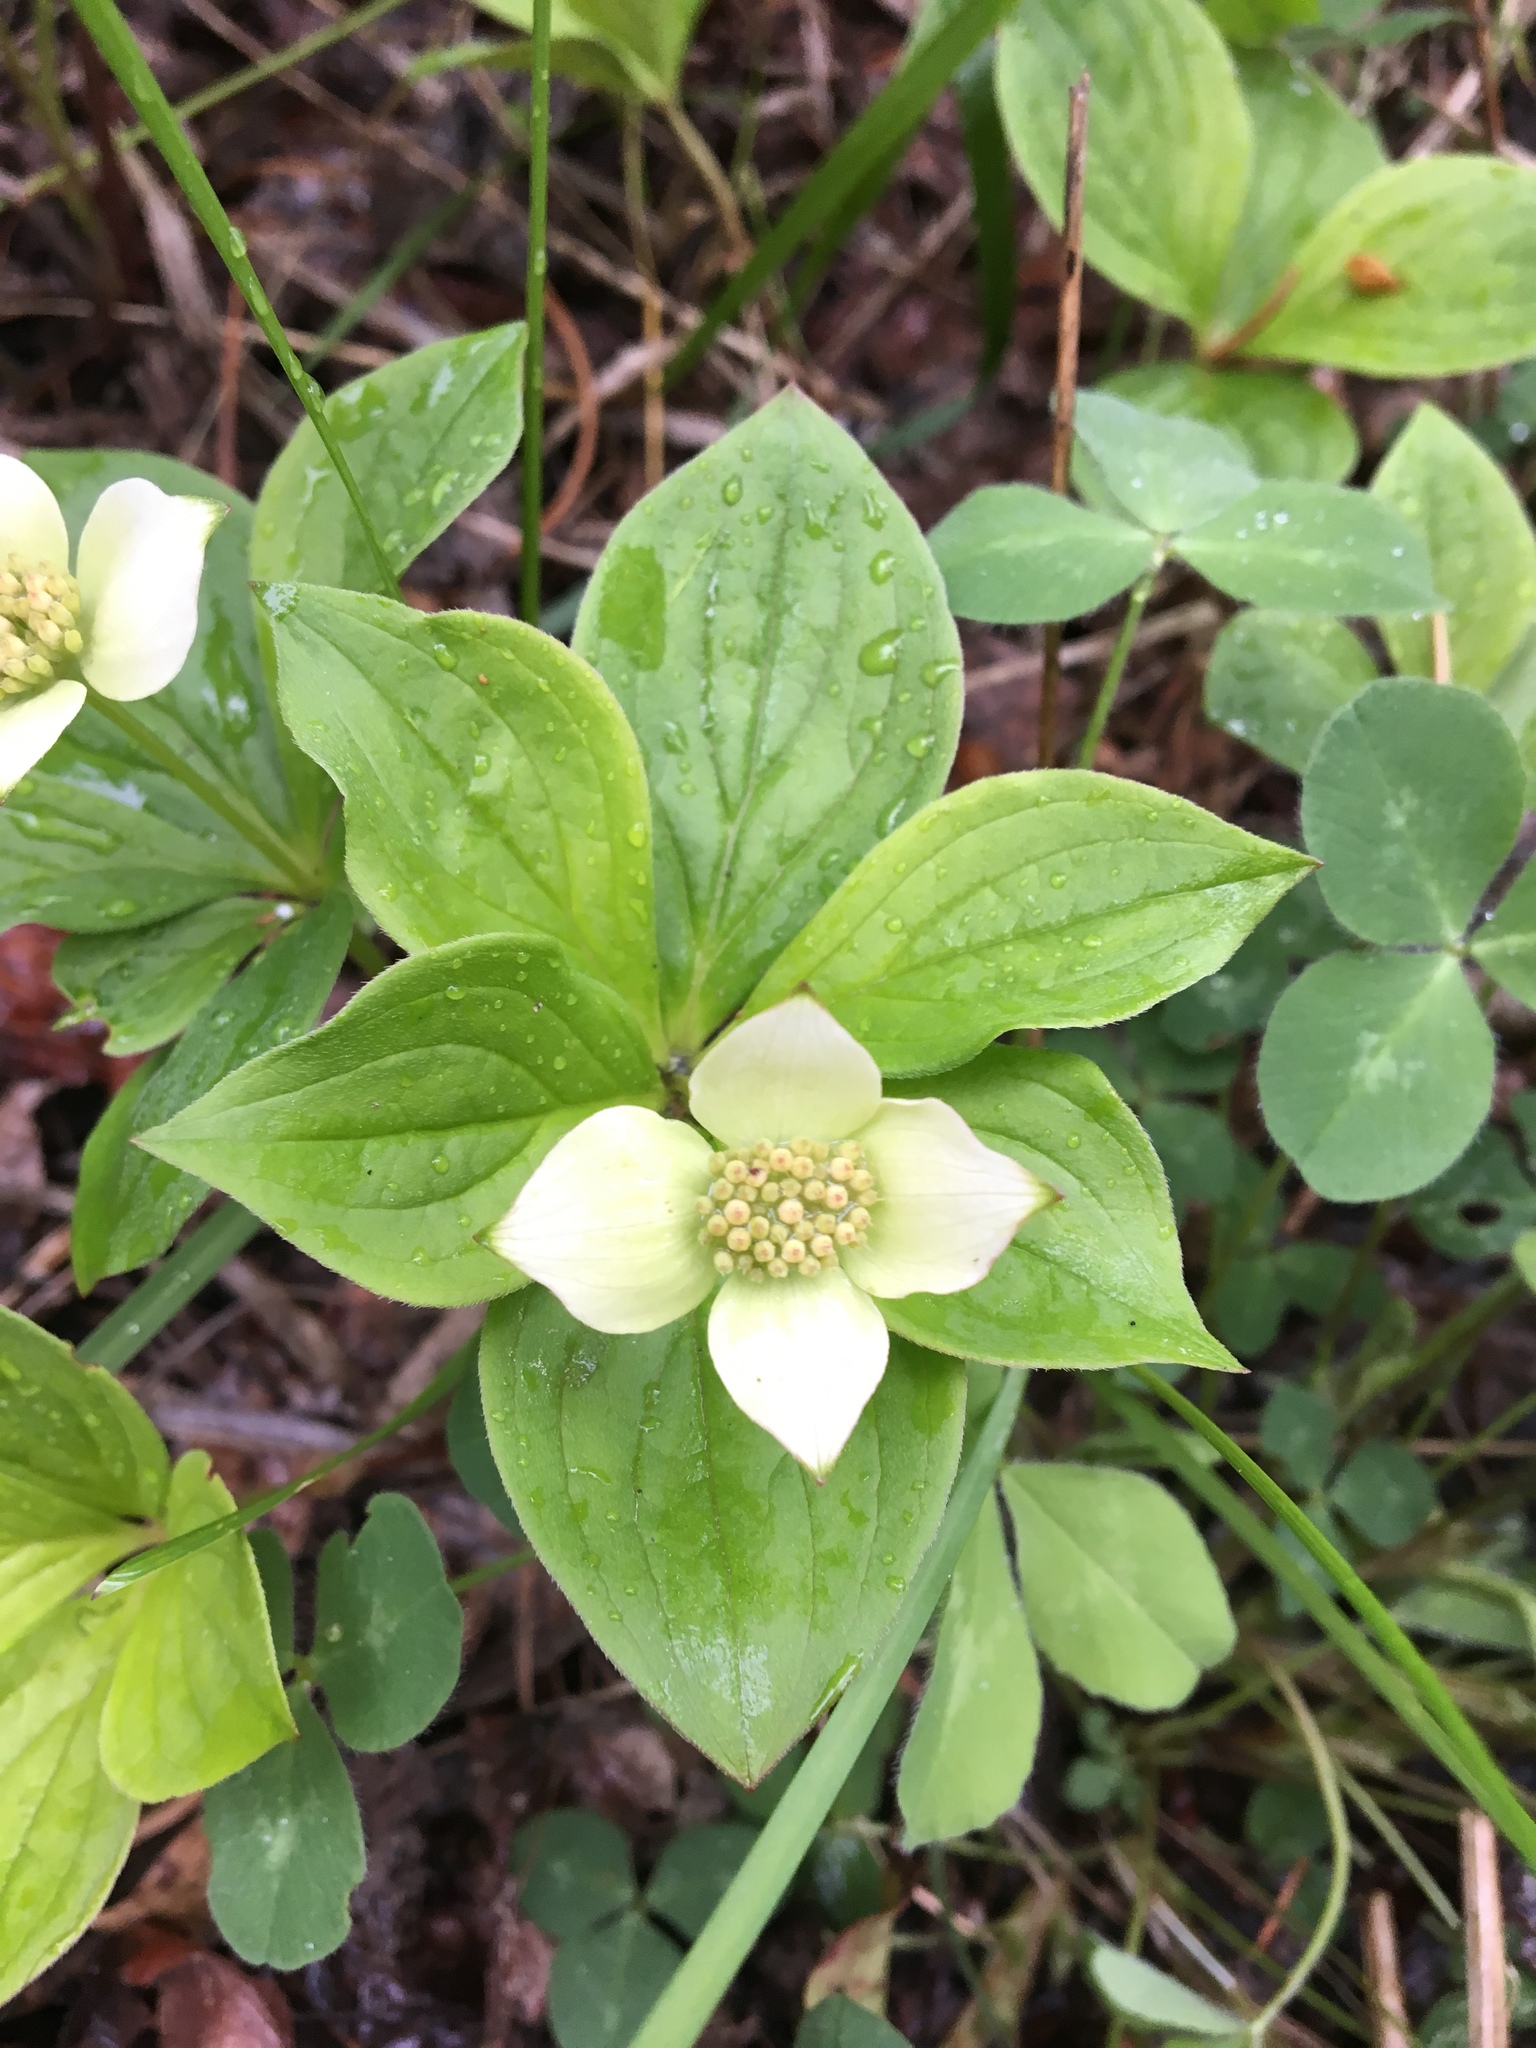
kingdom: Plantae
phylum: Tracheophyta
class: Magnoliopsida
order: Cornales
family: Cornaceae
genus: Cornus
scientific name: Cornus canadensis
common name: Creeping dogwood
